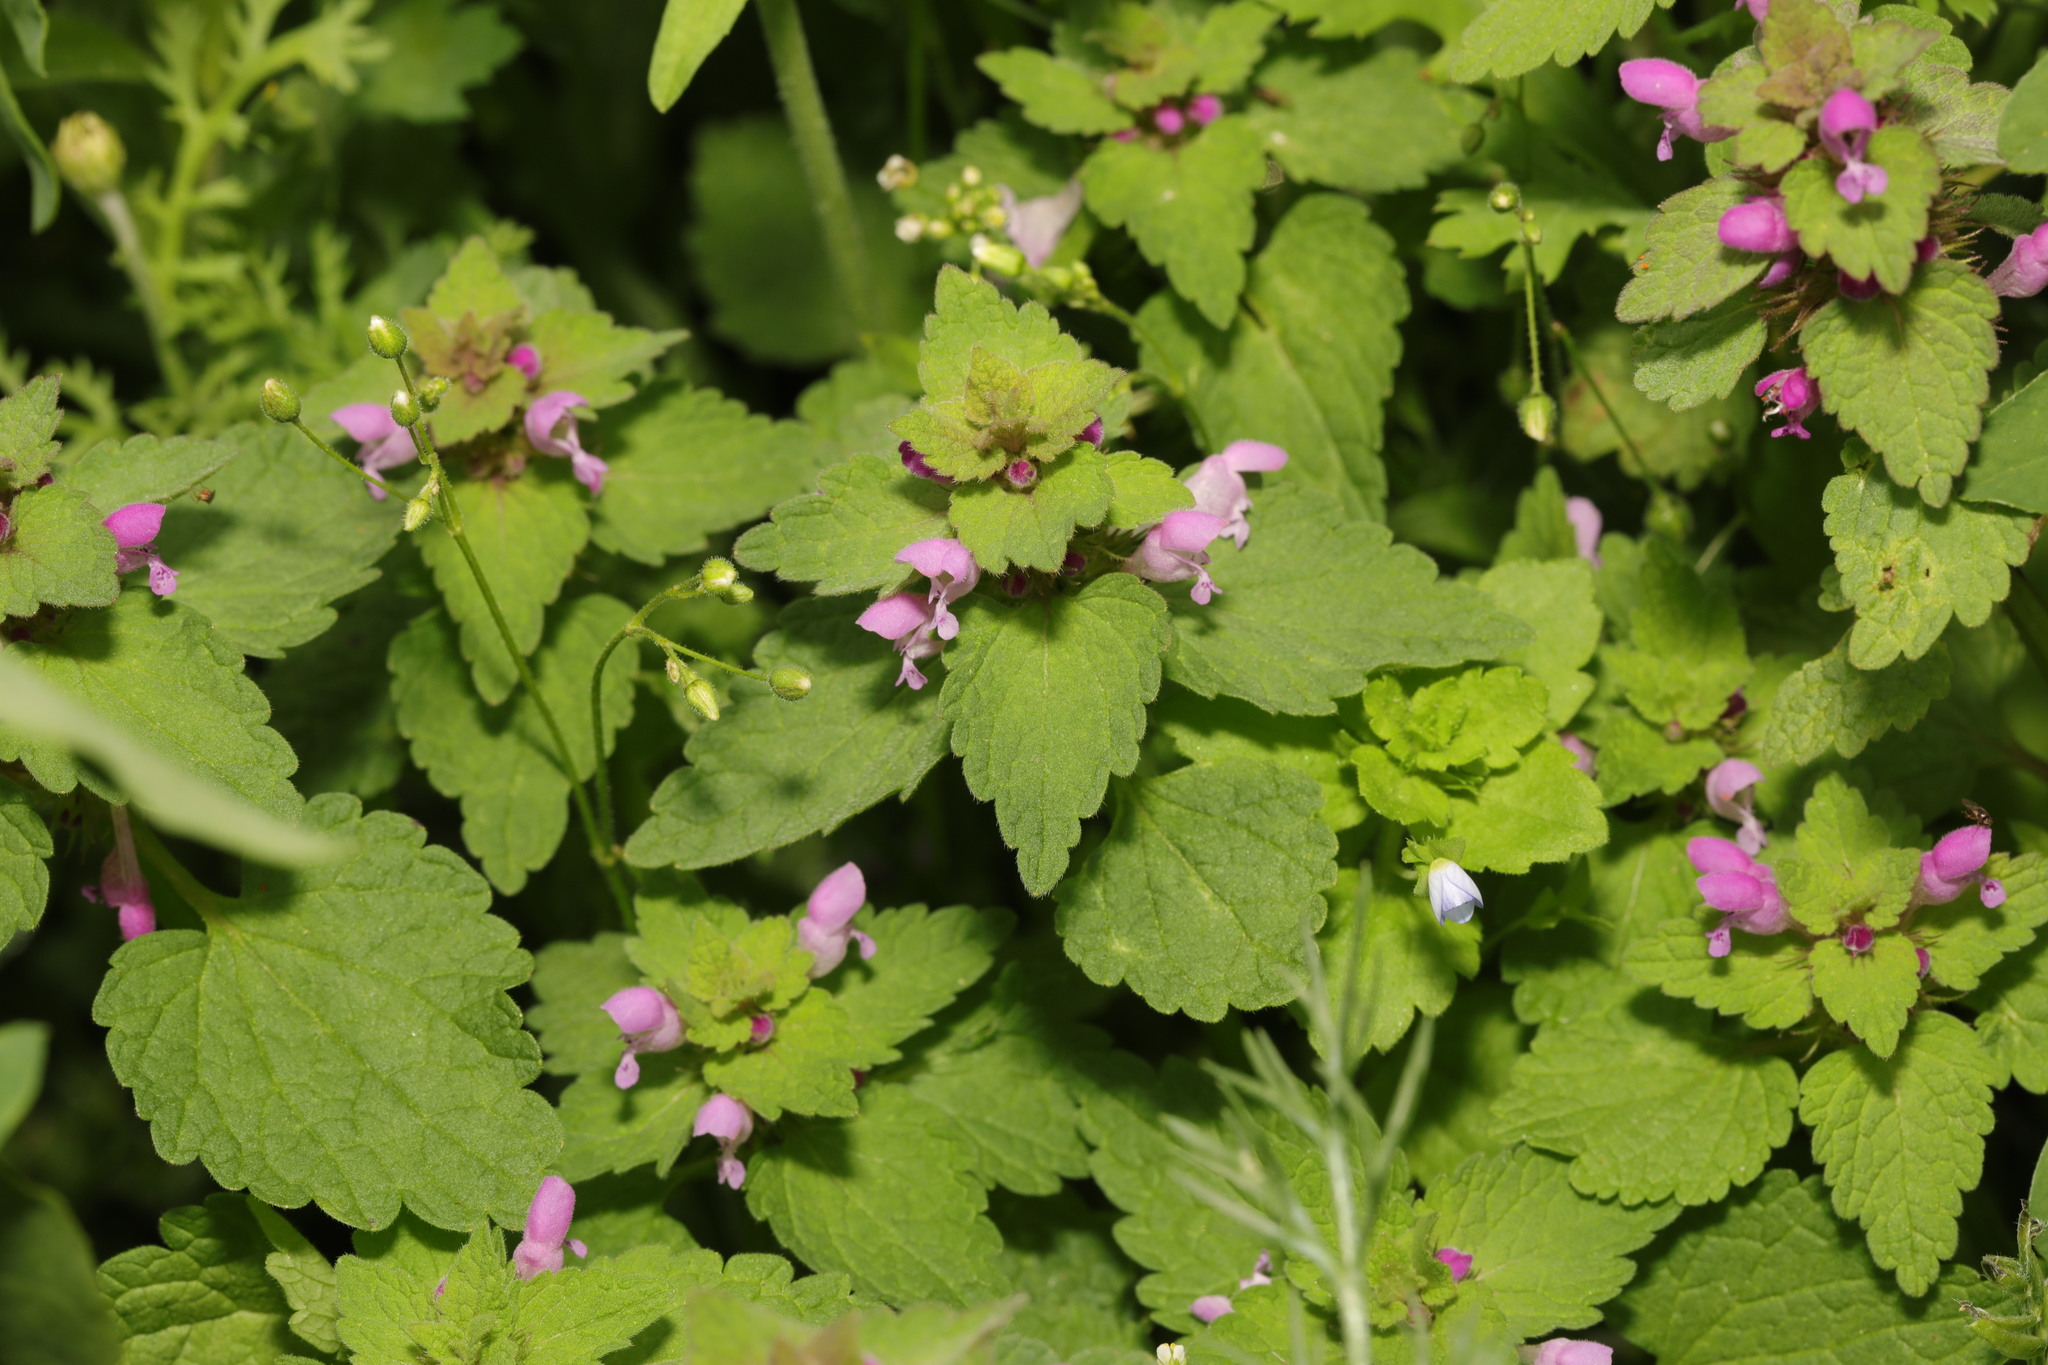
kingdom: Plantae
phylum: Tracheophyta
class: Magnoliopsida
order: Lamiales
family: Lamiaceae
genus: Lamium
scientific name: Lamium purpureum
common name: Red dead-nettle
